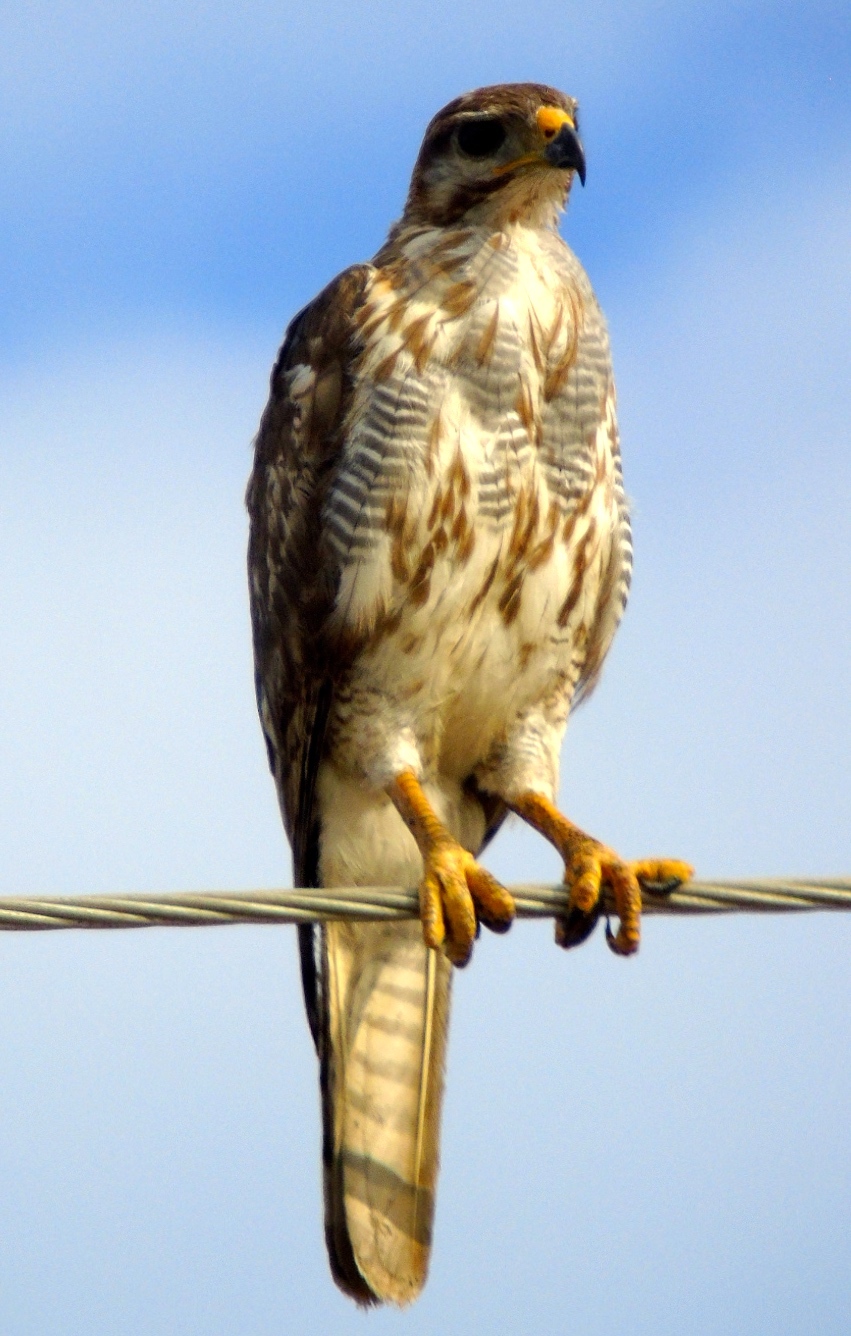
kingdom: Animalia
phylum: Chordata
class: Aves
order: Accipitriformes
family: Accipitridae
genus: Buteo
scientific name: Buteo nitidus
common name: Grey-lined hawk
